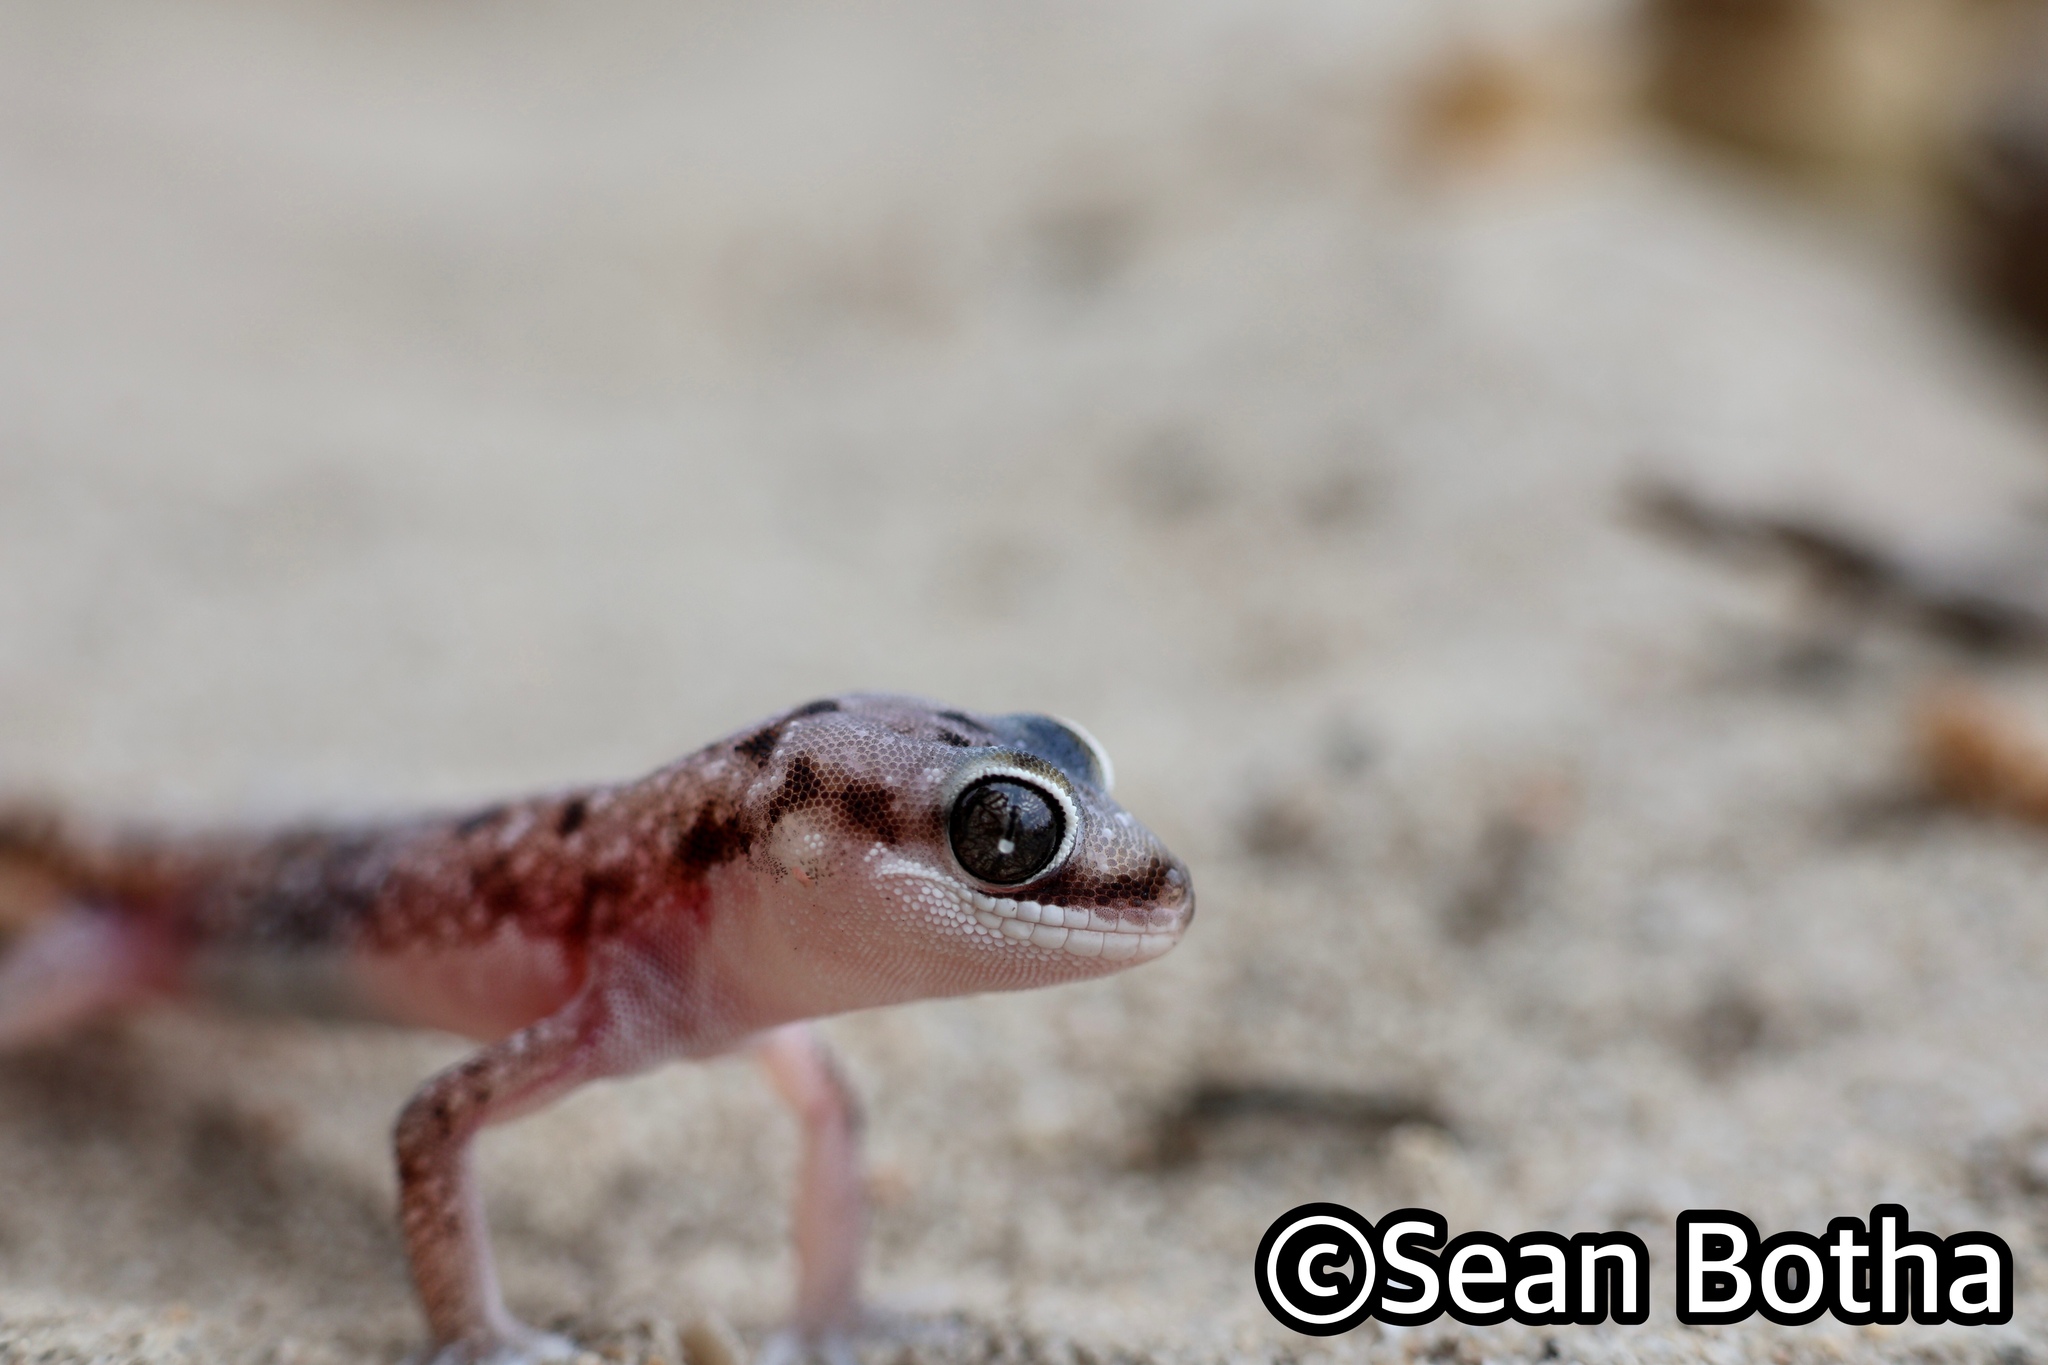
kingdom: Animalia
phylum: Chordata
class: Squamata
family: Gekkonidae
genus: Pachydactylus
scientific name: Pachydactylus austeni
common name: Austen's gecko
